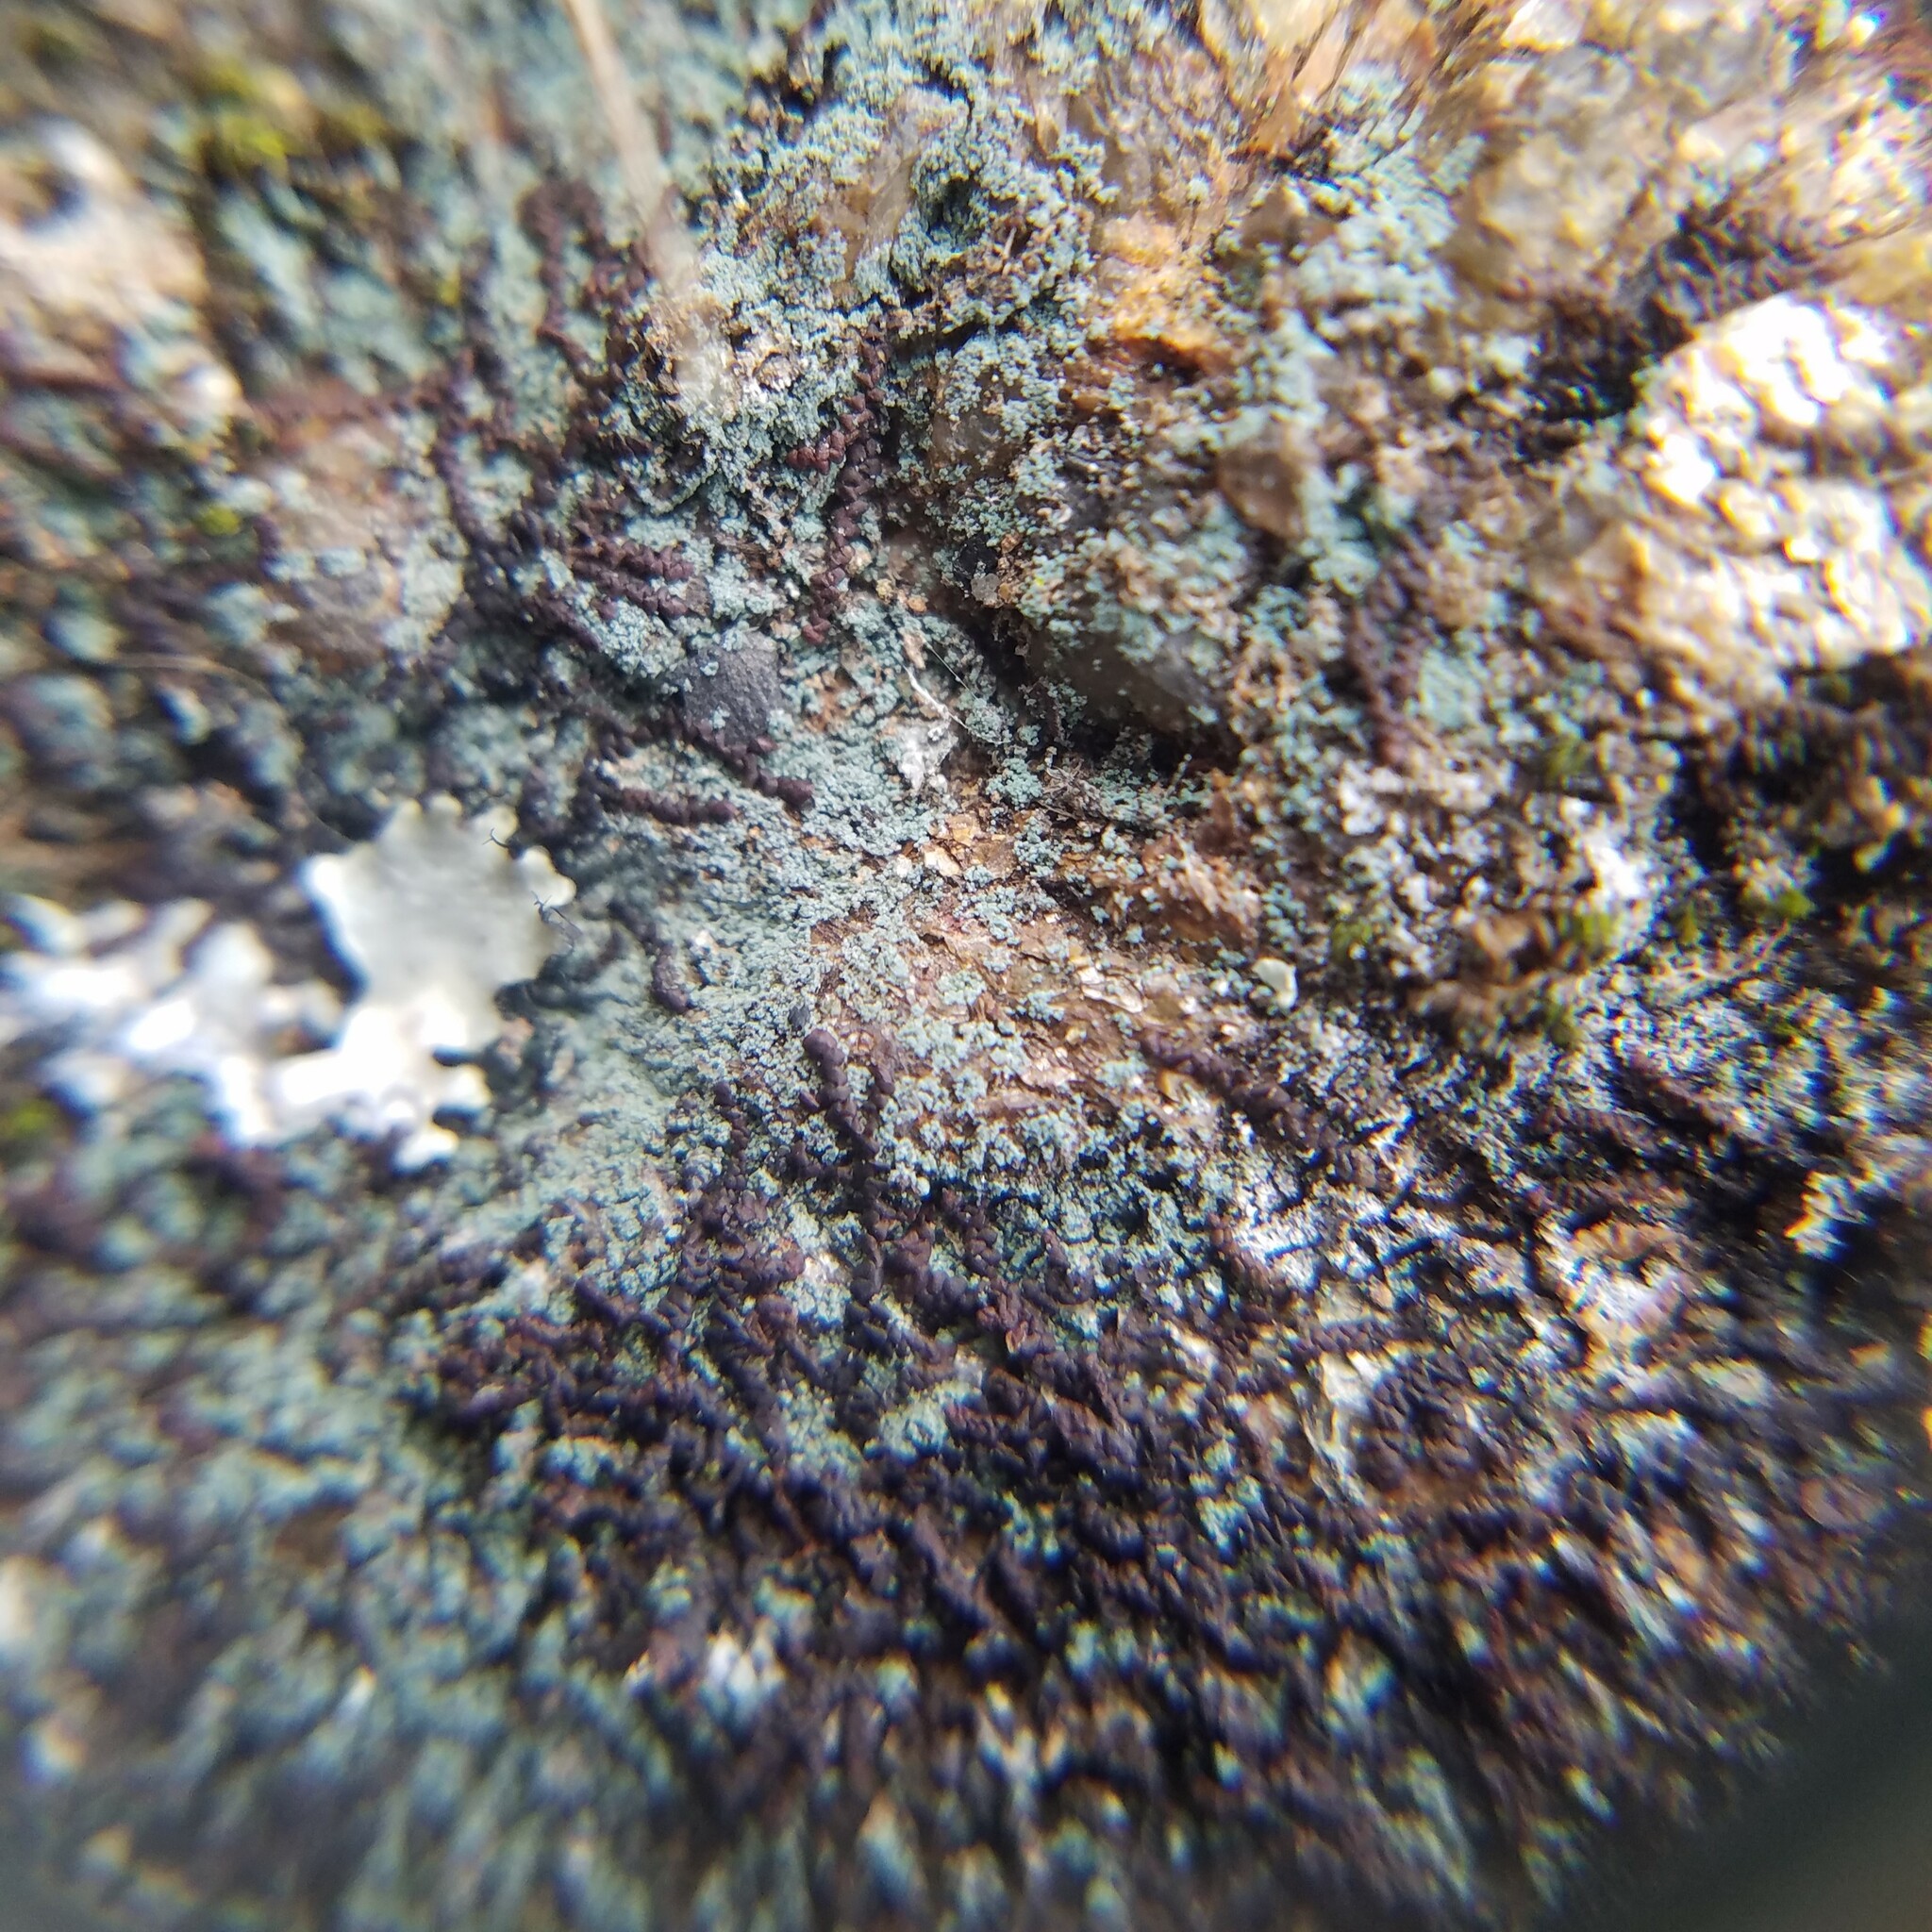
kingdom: Fungi
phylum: Ascomycota
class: Lecanoromycetes
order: Teloschistales
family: Leprocaulaceae
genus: Leprocaulon
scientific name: Leprocaulon adhaerens
